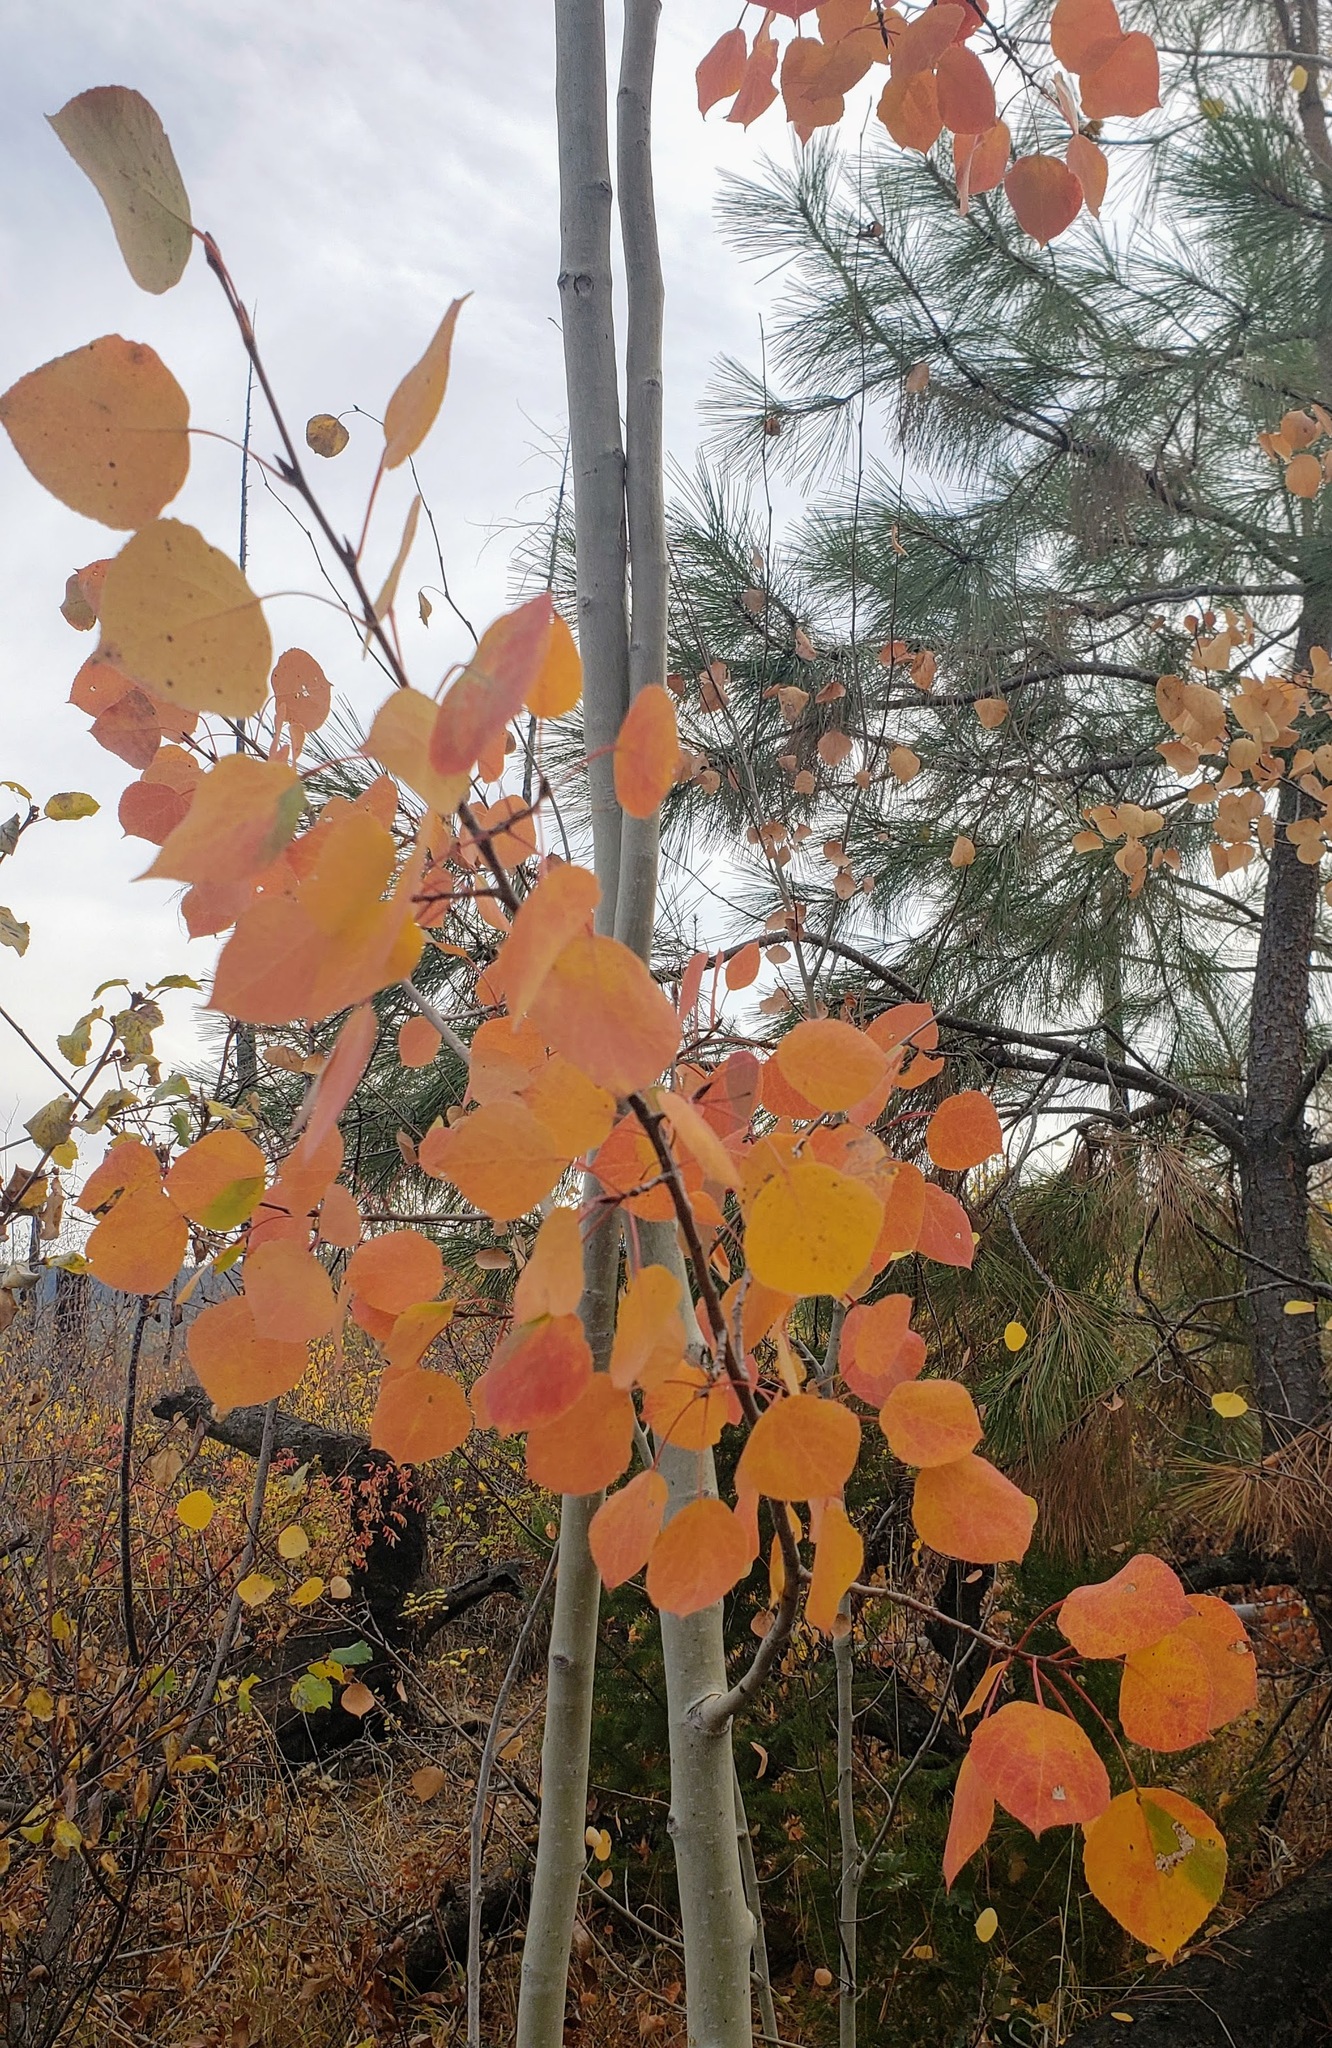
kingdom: Plantae
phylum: Tracheophyta
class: Magnoliopsida
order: Malpighiales
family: Salicaceae
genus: Populus
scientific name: Populus tremuloides
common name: Quaking aspen
